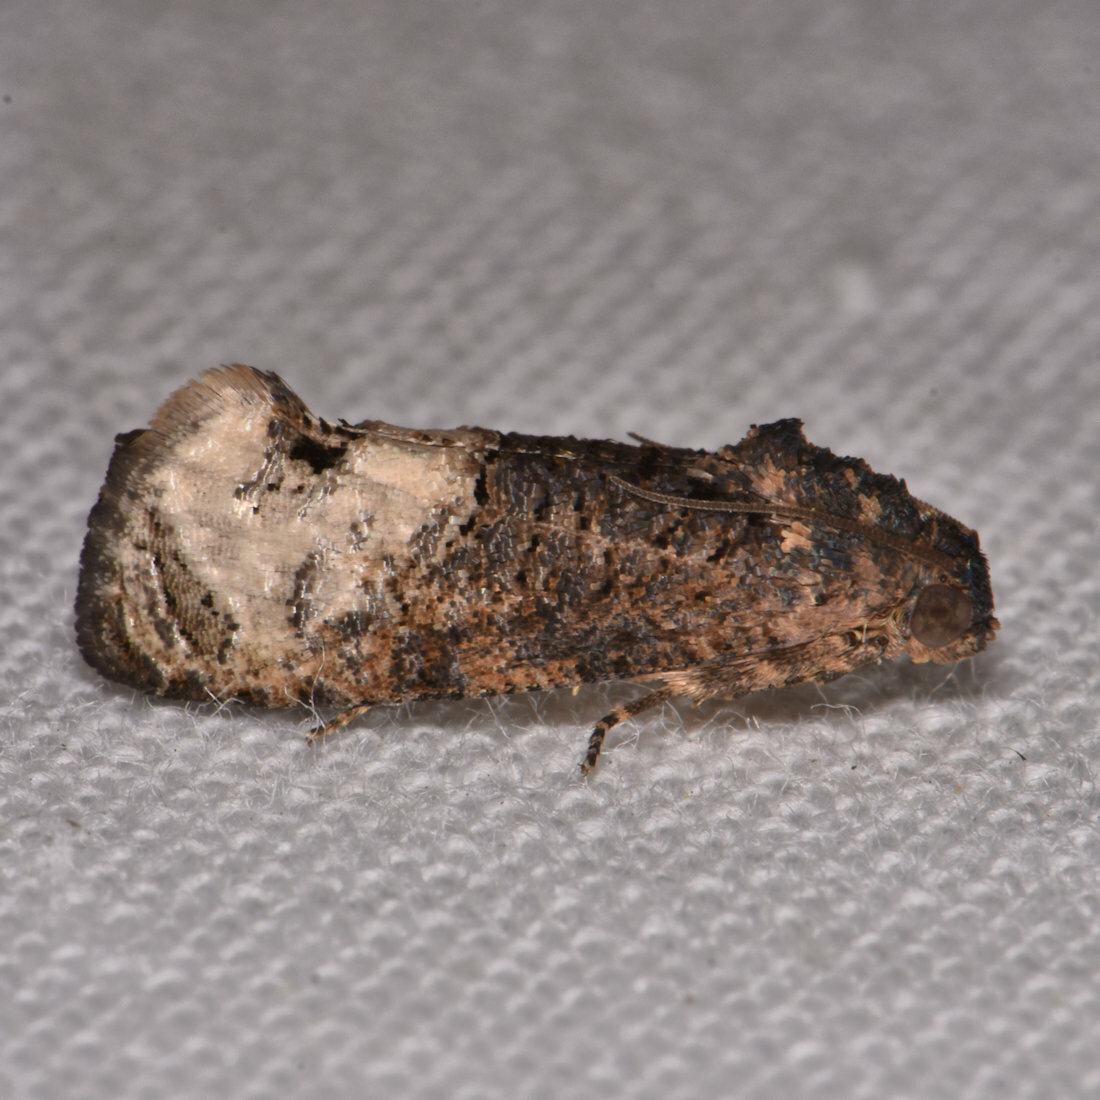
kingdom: Animalia
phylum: Arthropoda
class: Insecta
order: Lepidoptera
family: Tortricidae
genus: Ecdytolopha
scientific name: Ecdytolopha insiticiana
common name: Locust twig borer moth
